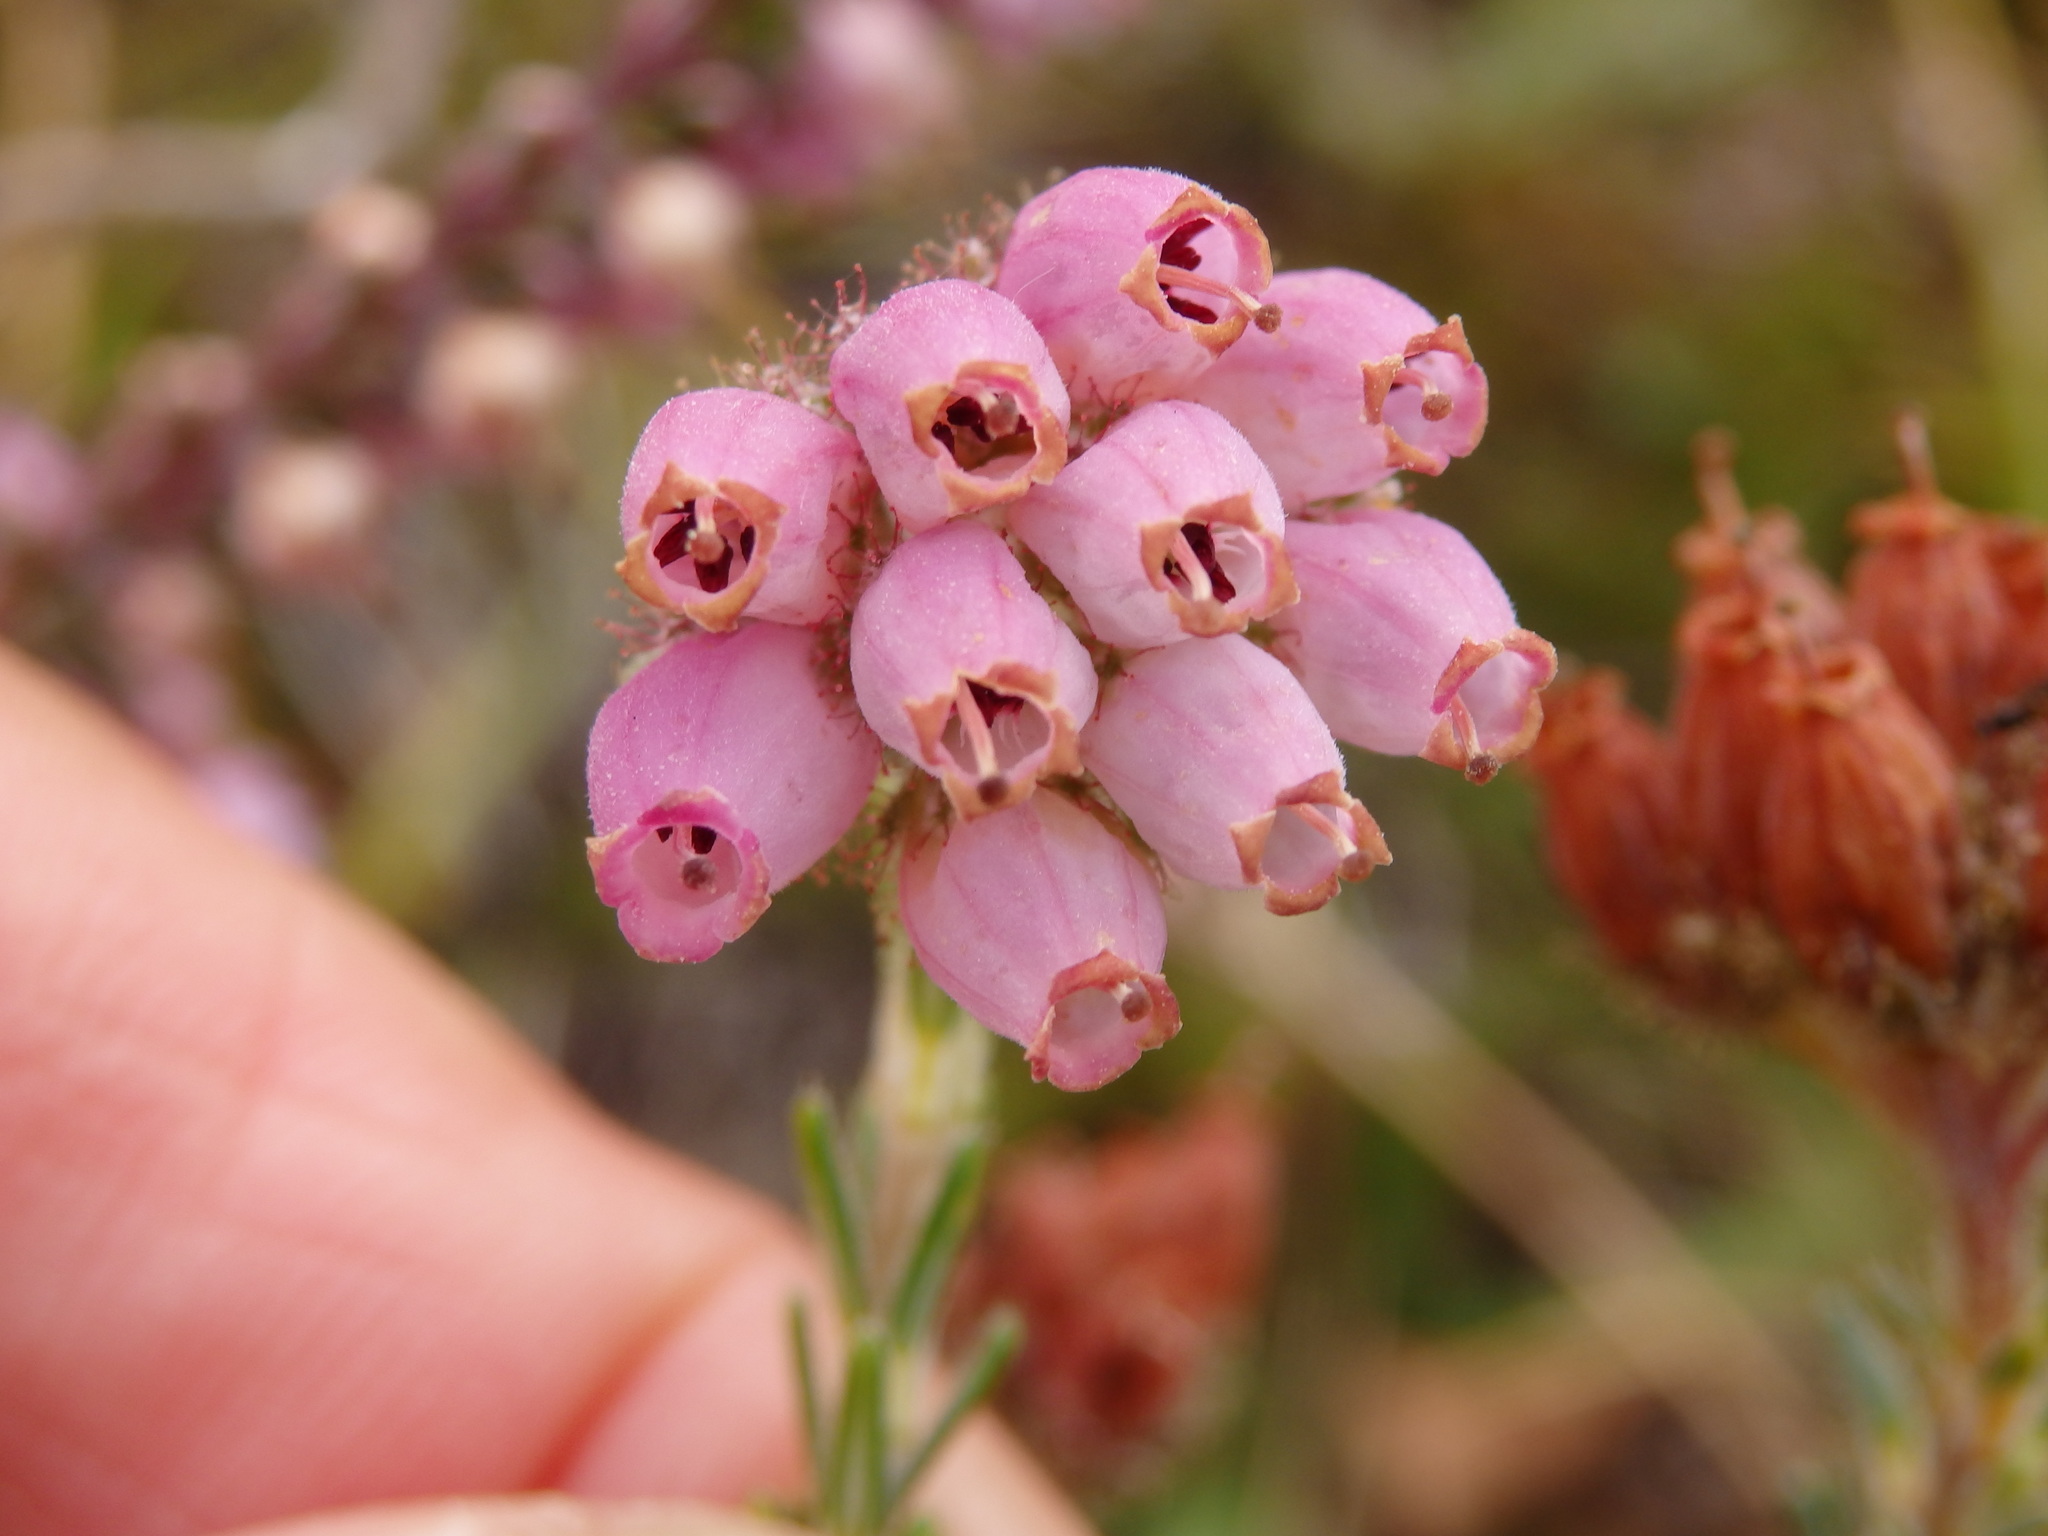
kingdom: Plantae
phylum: Tracheophyta
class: Magnoliopsida
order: Ericales
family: Ericaceae
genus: Erica
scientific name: Erica tetralix
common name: Cross-leaved heath
